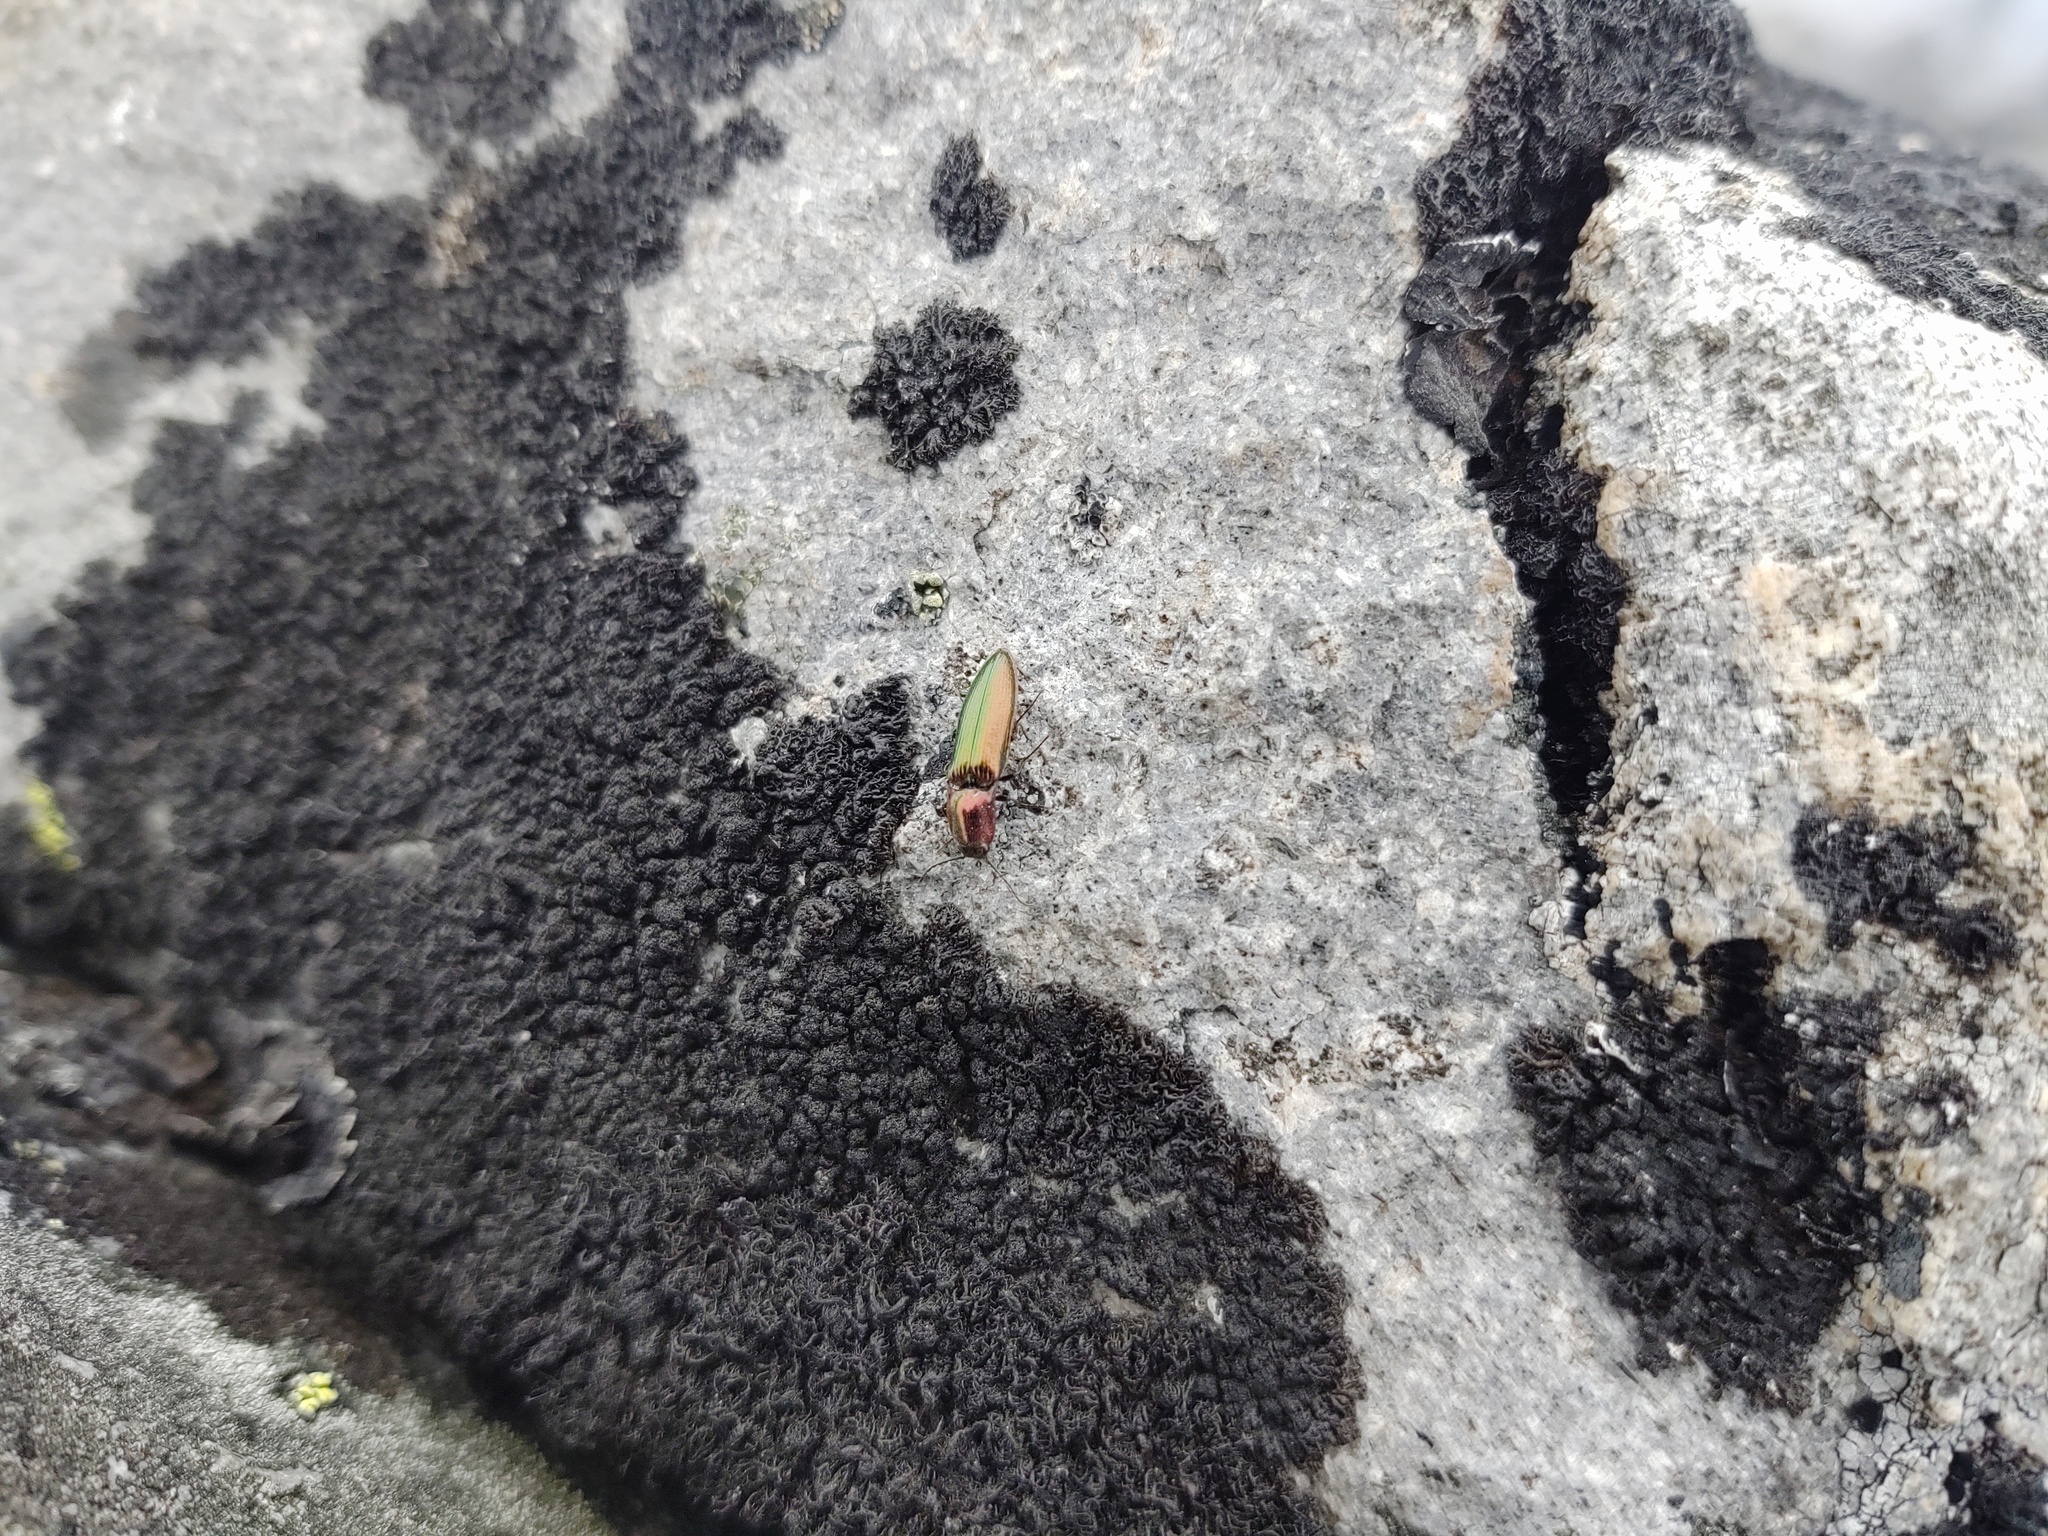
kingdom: Animalia
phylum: Arthropoda
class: Insecta
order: Coleoptera
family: Elateridae
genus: Nitidolimonius
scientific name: Nitidolimonius resplendens
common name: Resplendent click beetle
